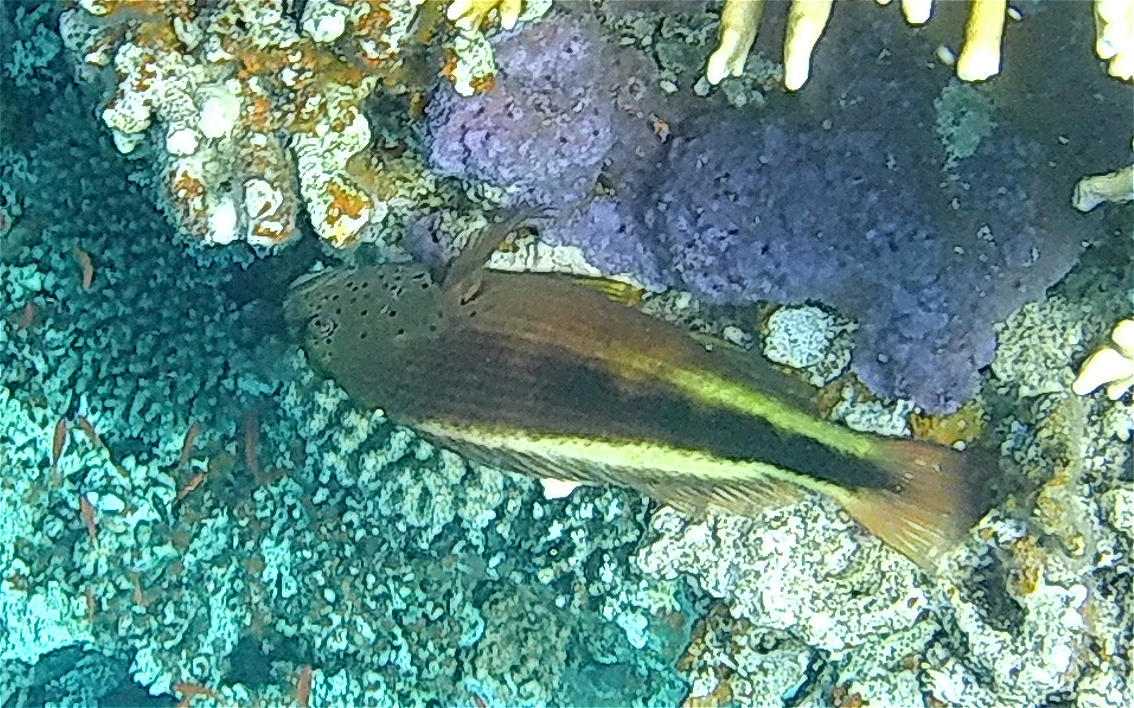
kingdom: Animalia
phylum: Chordata
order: Perciformes
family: Cirrhitidae
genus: Paracirrhites
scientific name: Paracirrhites forsteri
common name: Freckled hawkfish
